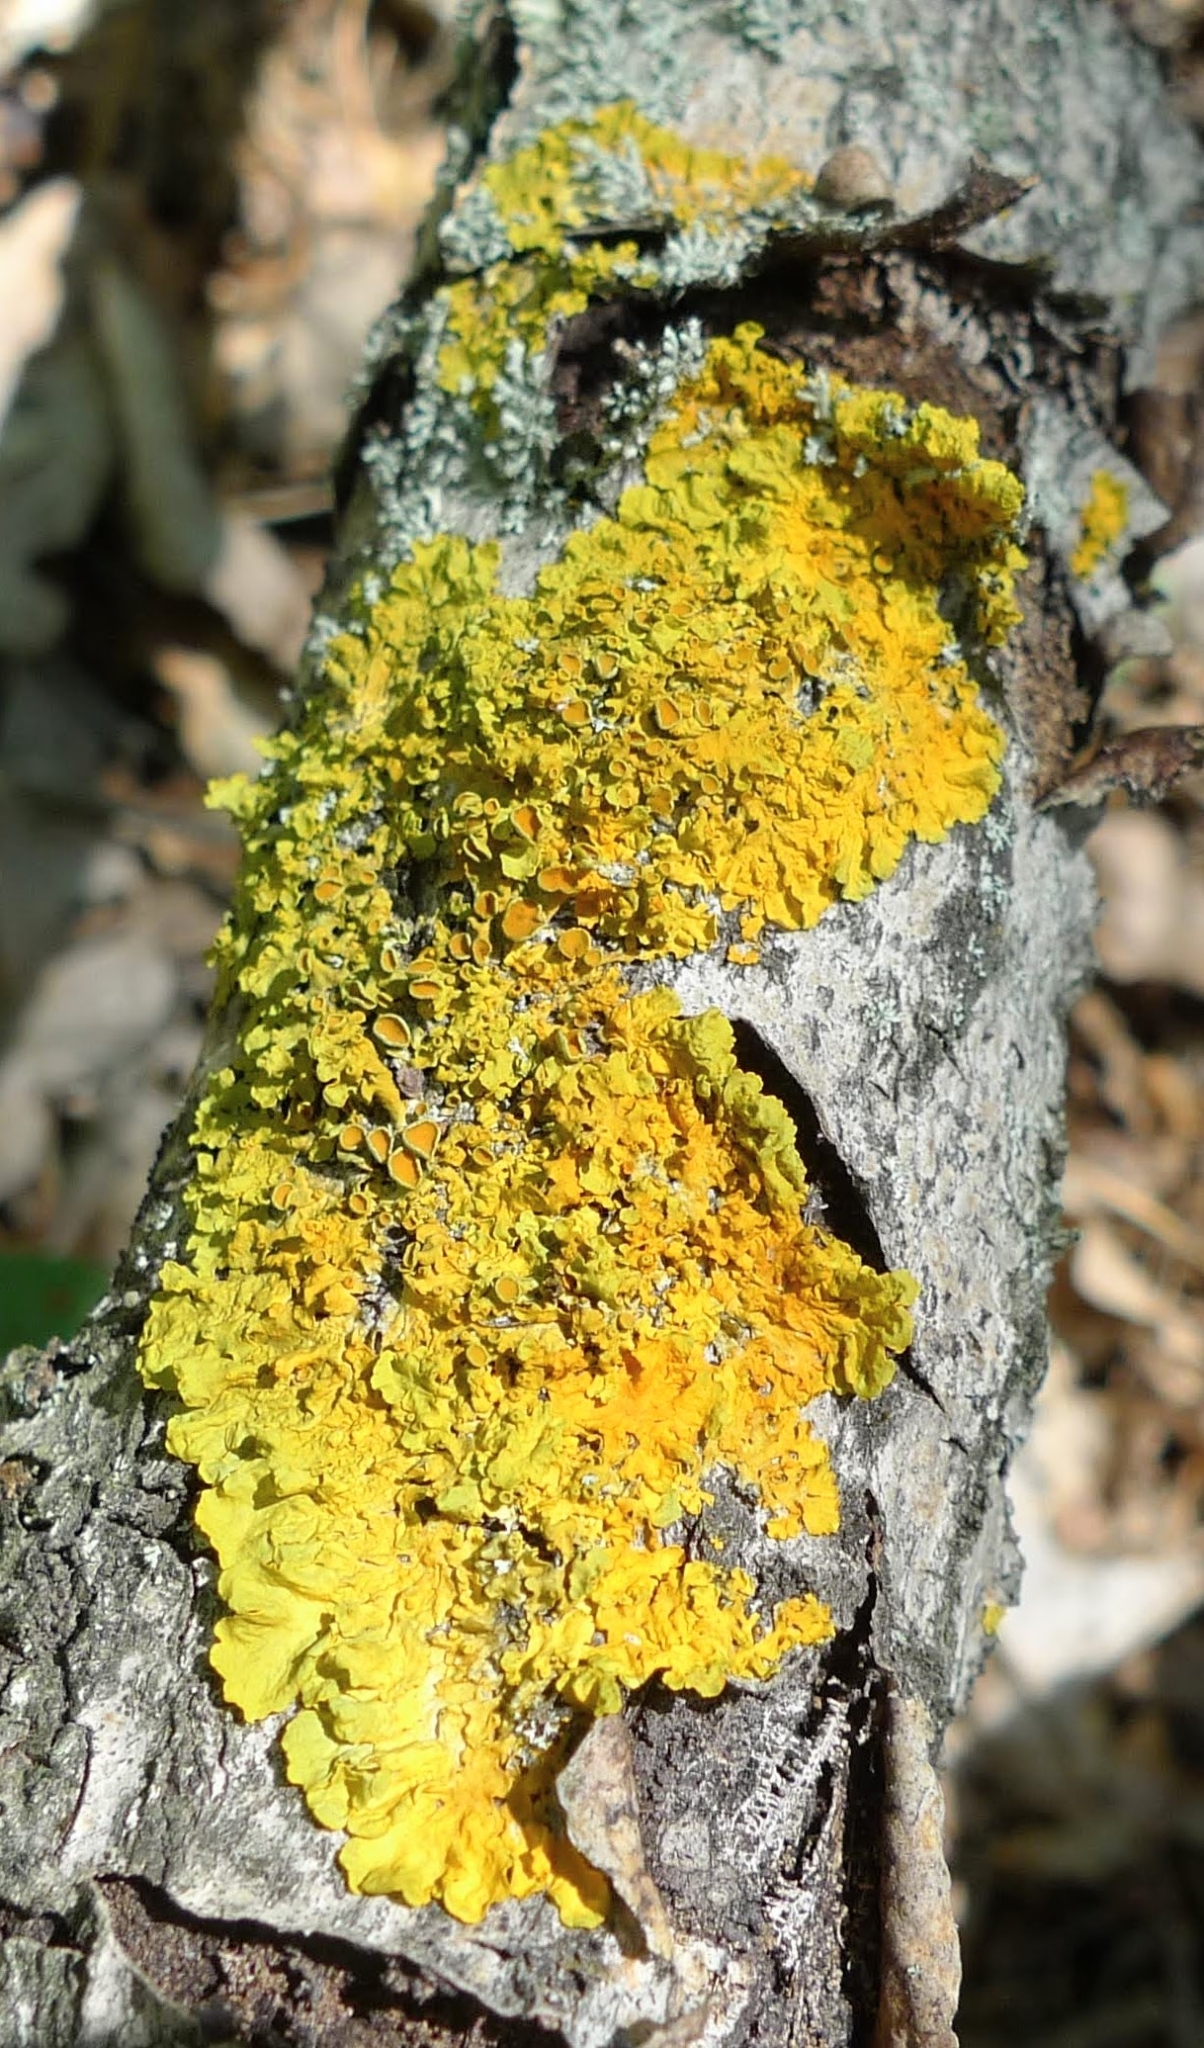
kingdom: Fungi
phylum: Ascomycota
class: Lecanoromycetes
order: Teloschistales
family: Teloschistaceae
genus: Xanthoria
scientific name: Xanthoria parietina
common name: Common orange lichen
